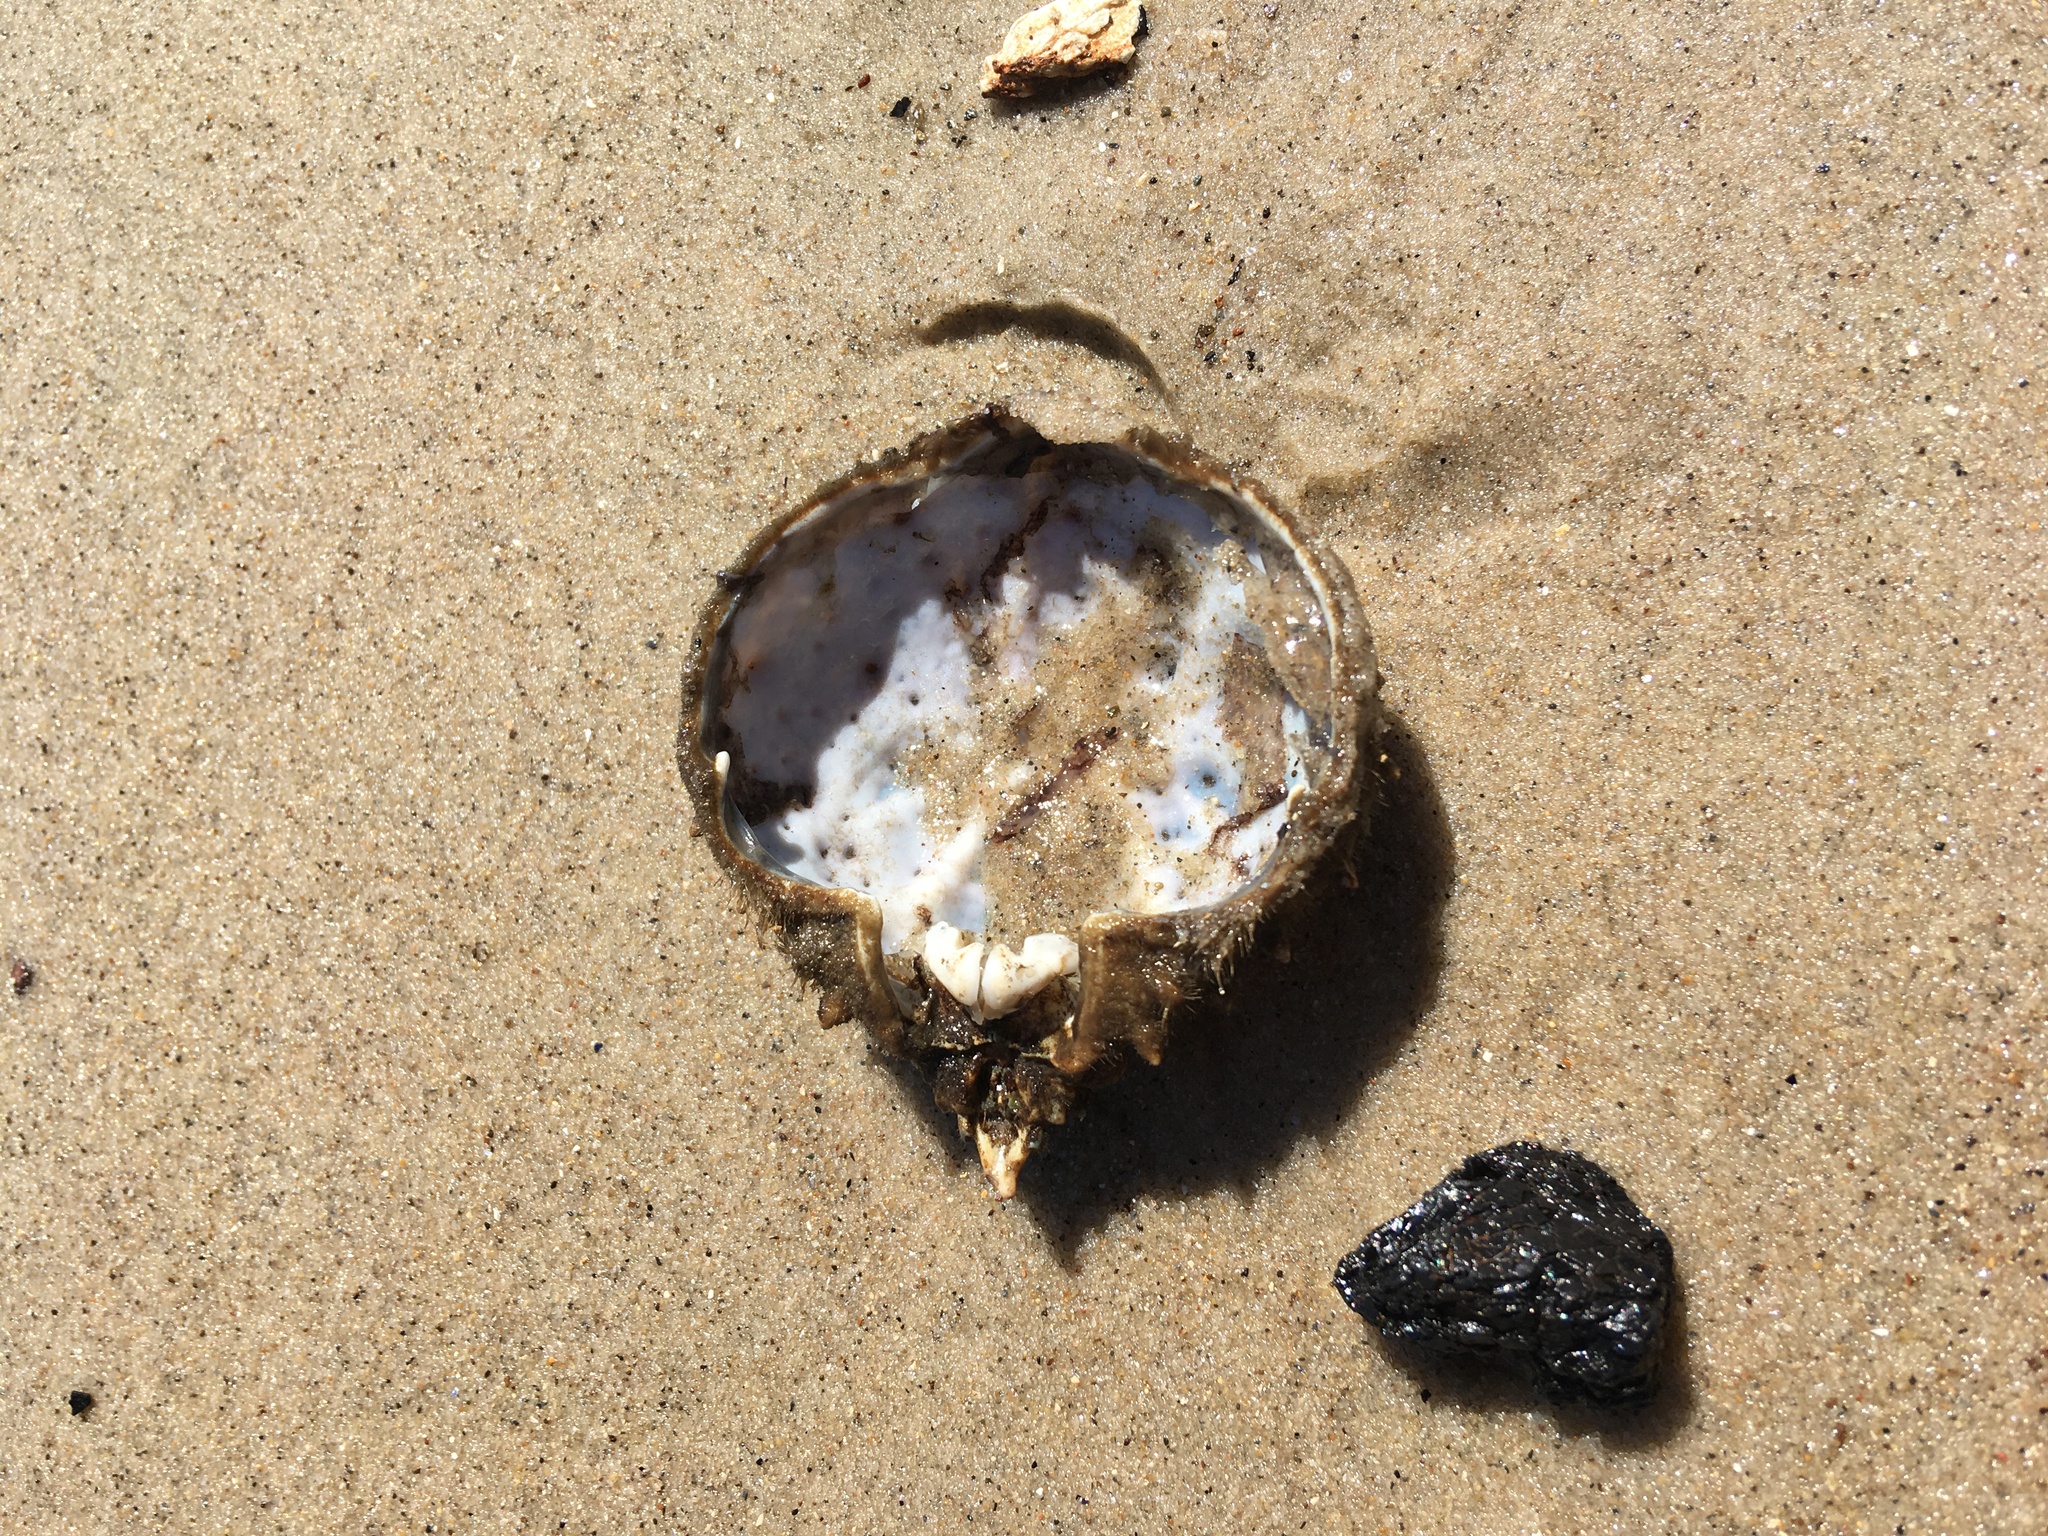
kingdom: Animalia
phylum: Arthropoda
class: Malacostraca
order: Decapoda
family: Epialtidae
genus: Libinia
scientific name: Libinia emarginata
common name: Common spider crab
